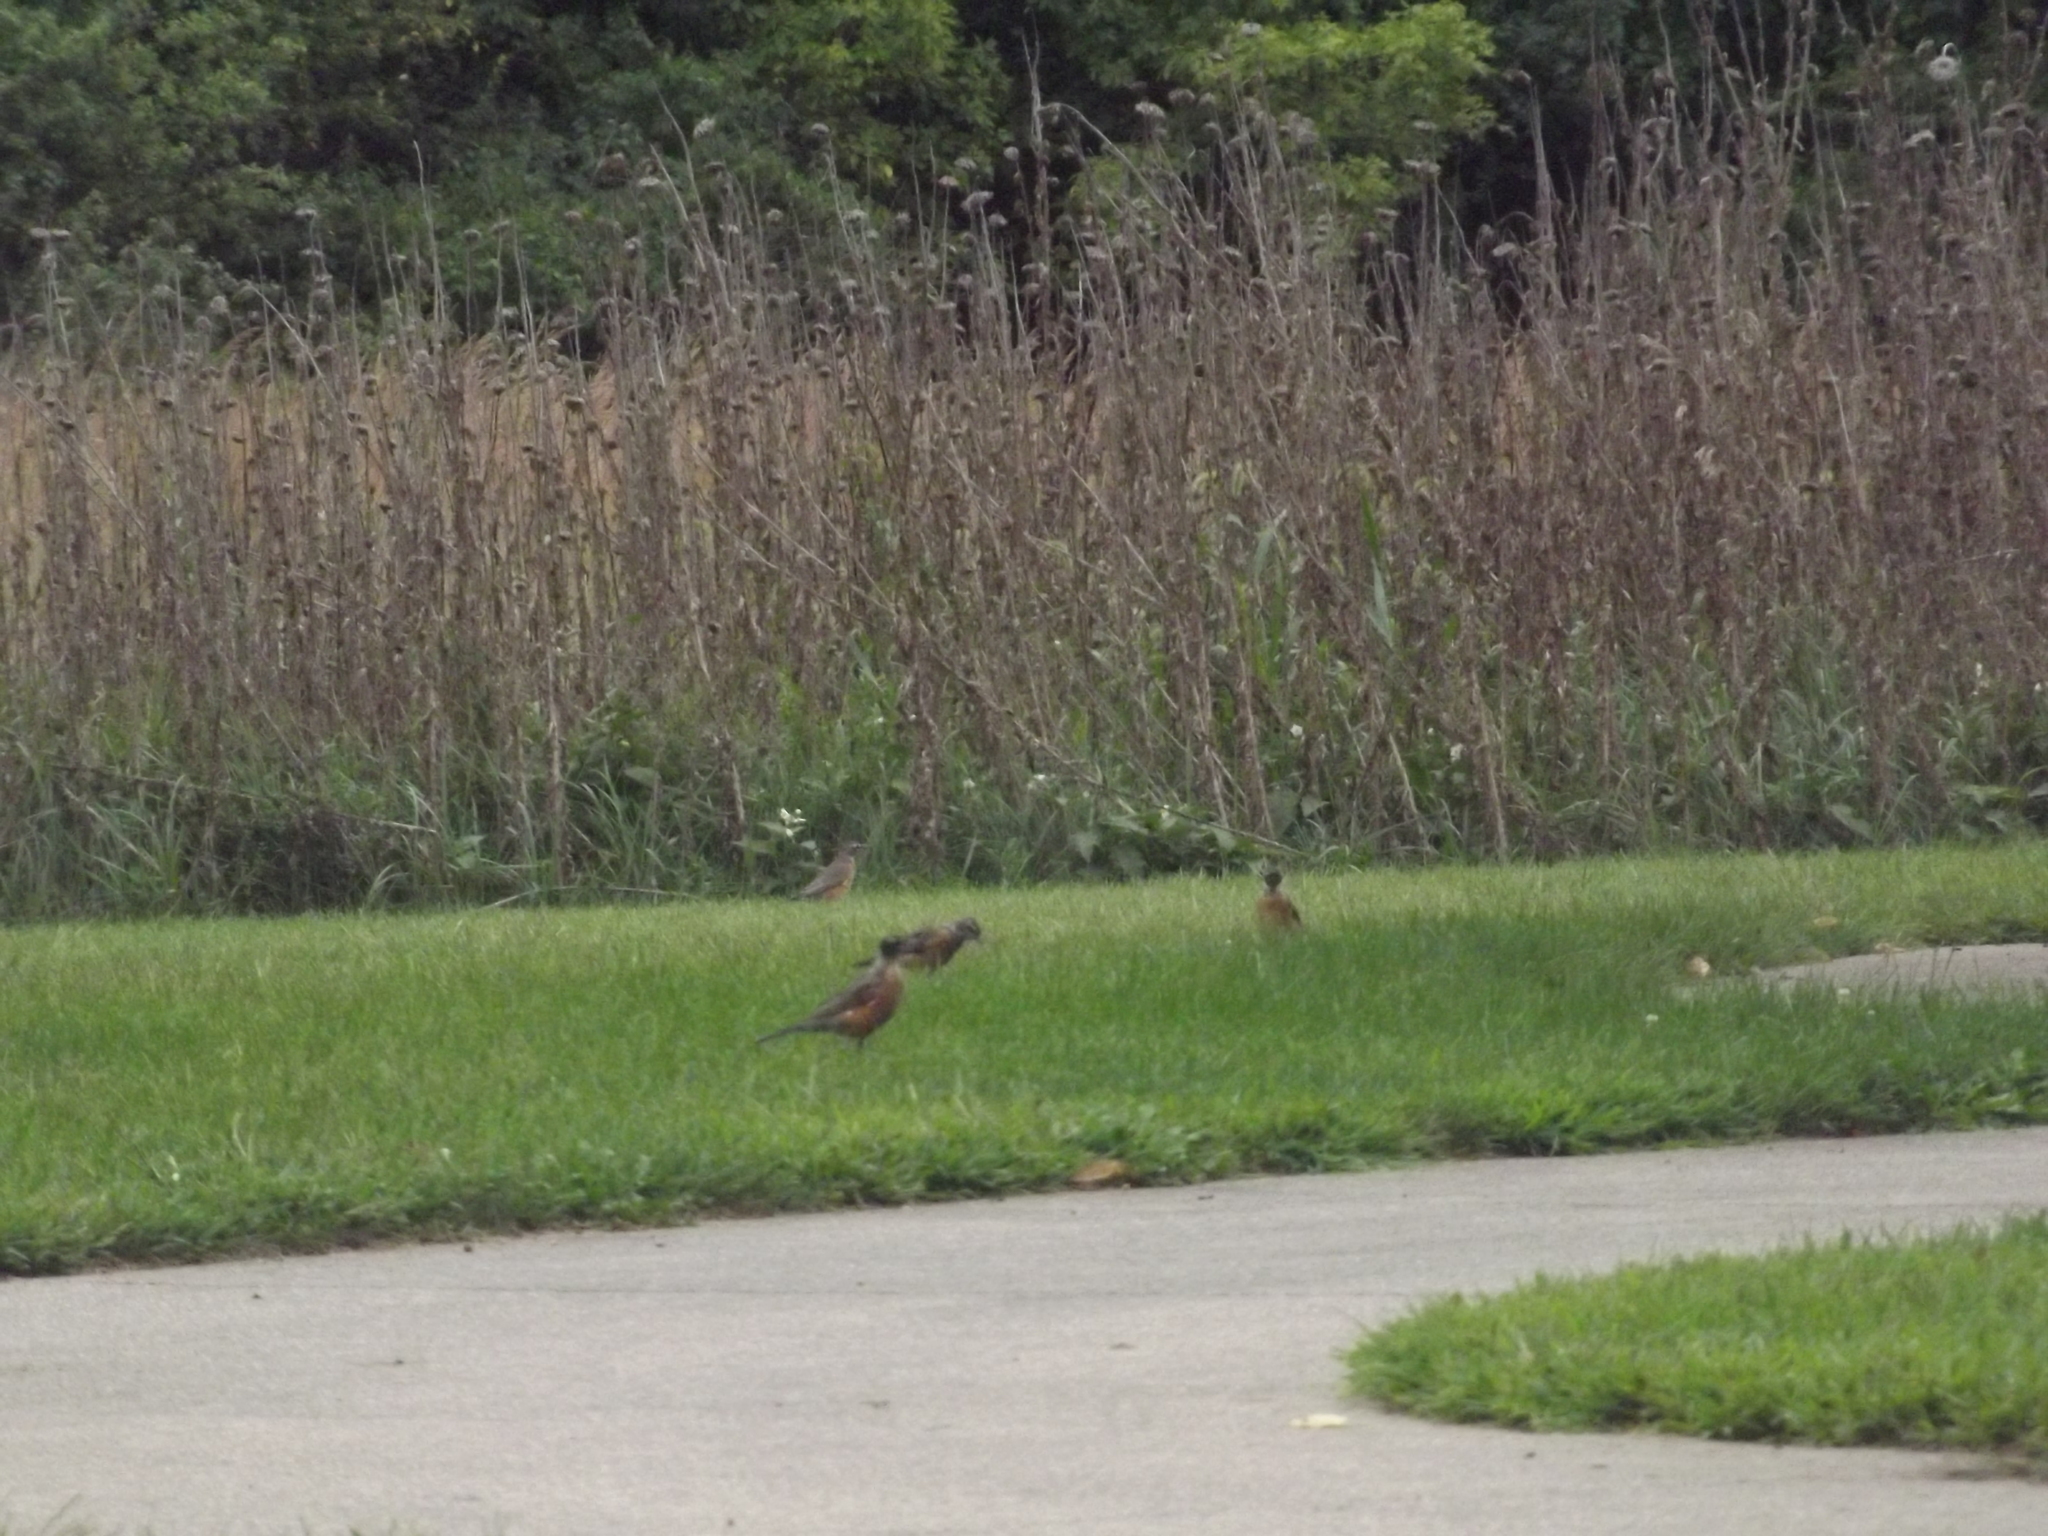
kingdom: Animalia
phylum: Chordata
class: Aves
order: Passeriformes
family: Turdidae
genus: Turdus
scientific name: Turdus migratorius
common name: American robin
